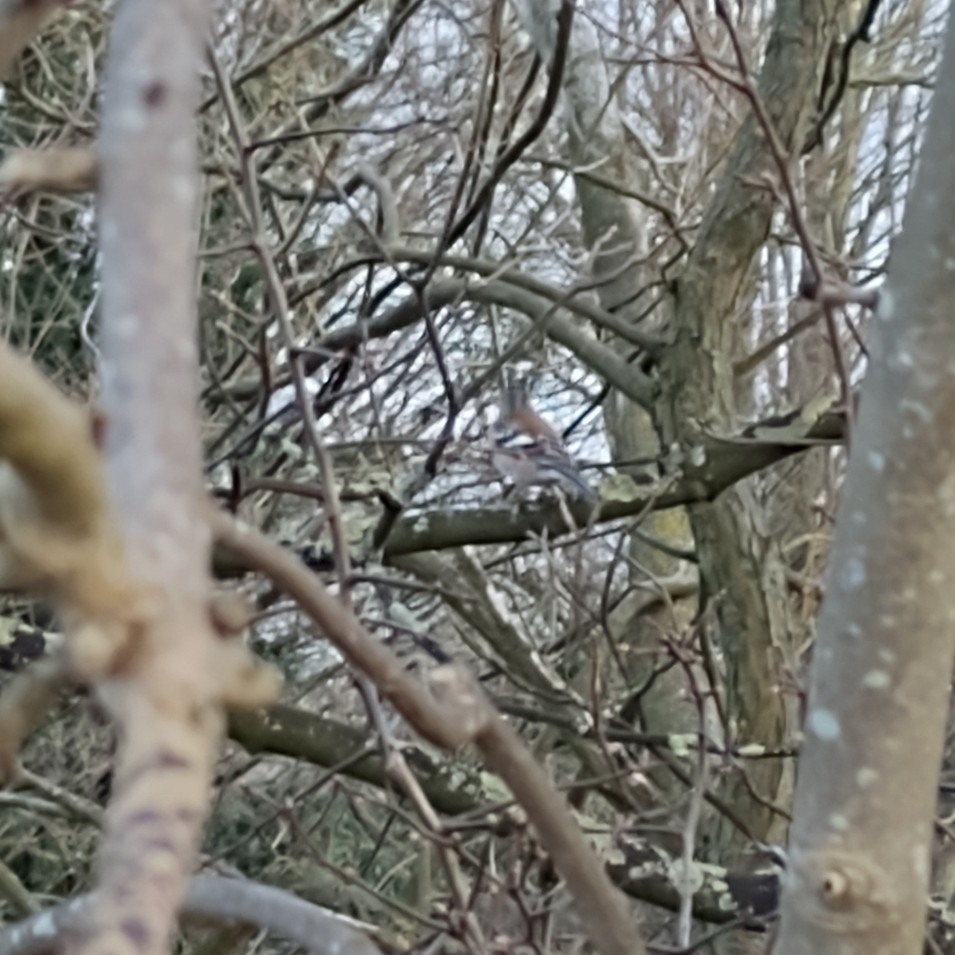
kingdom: Animalia
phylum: Chordata
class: Aves
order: Passeriformes
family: Fringillidae
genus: Fringilla
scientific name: Fringilla coelebs
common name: Common chaffinch
